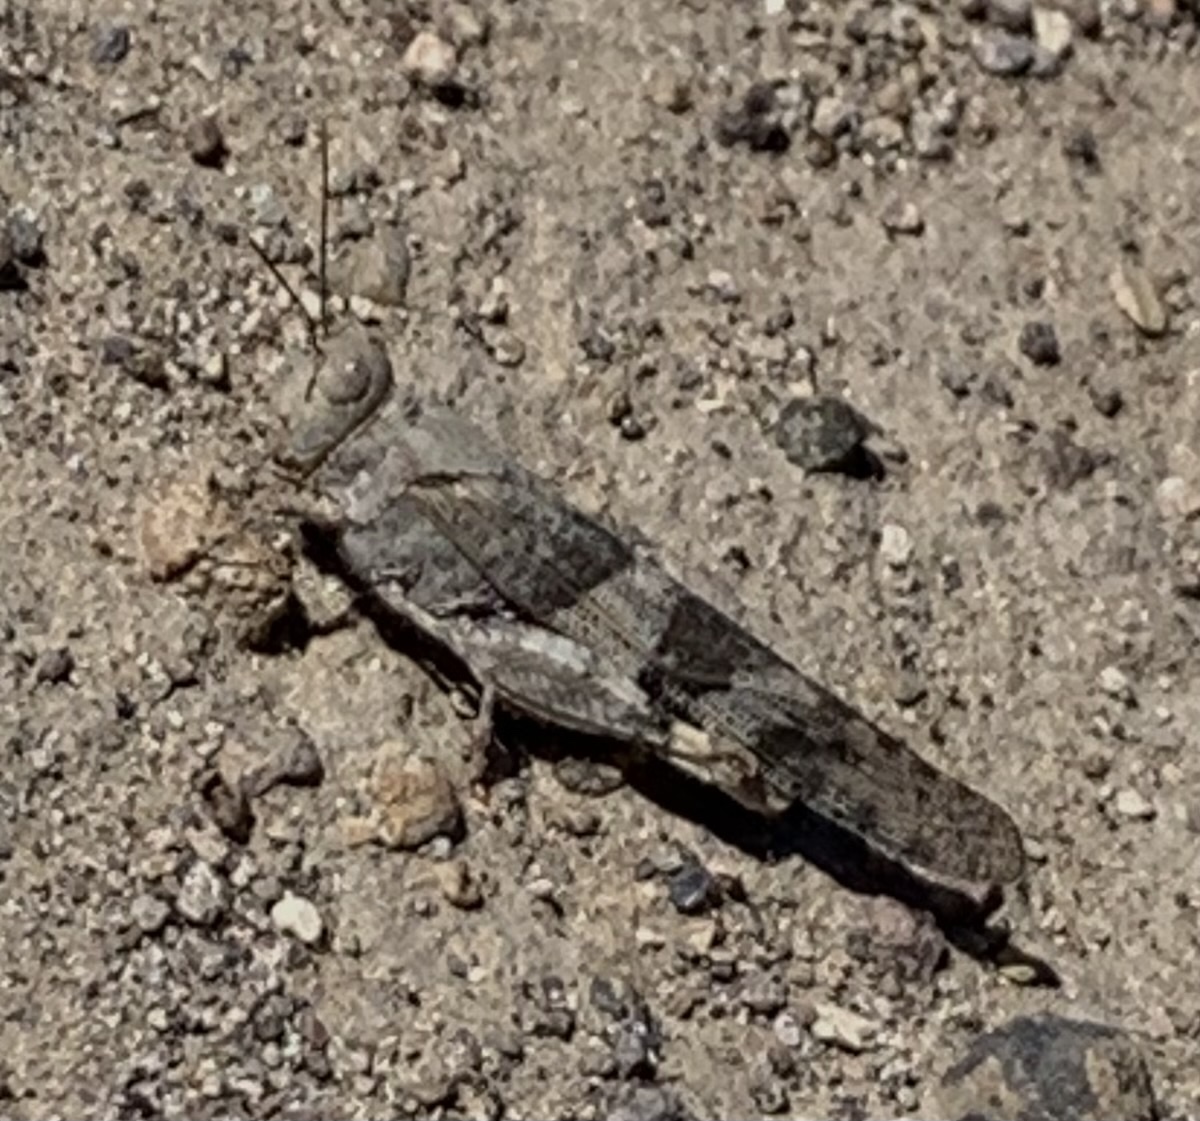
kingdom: Animalia
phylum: Arthropoda
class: Insecta
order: Orthoptera
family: Acrididae
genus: Trimerotropis
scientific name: Trimerotropis pallidipennis
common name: Pallid-winged grasshopper
